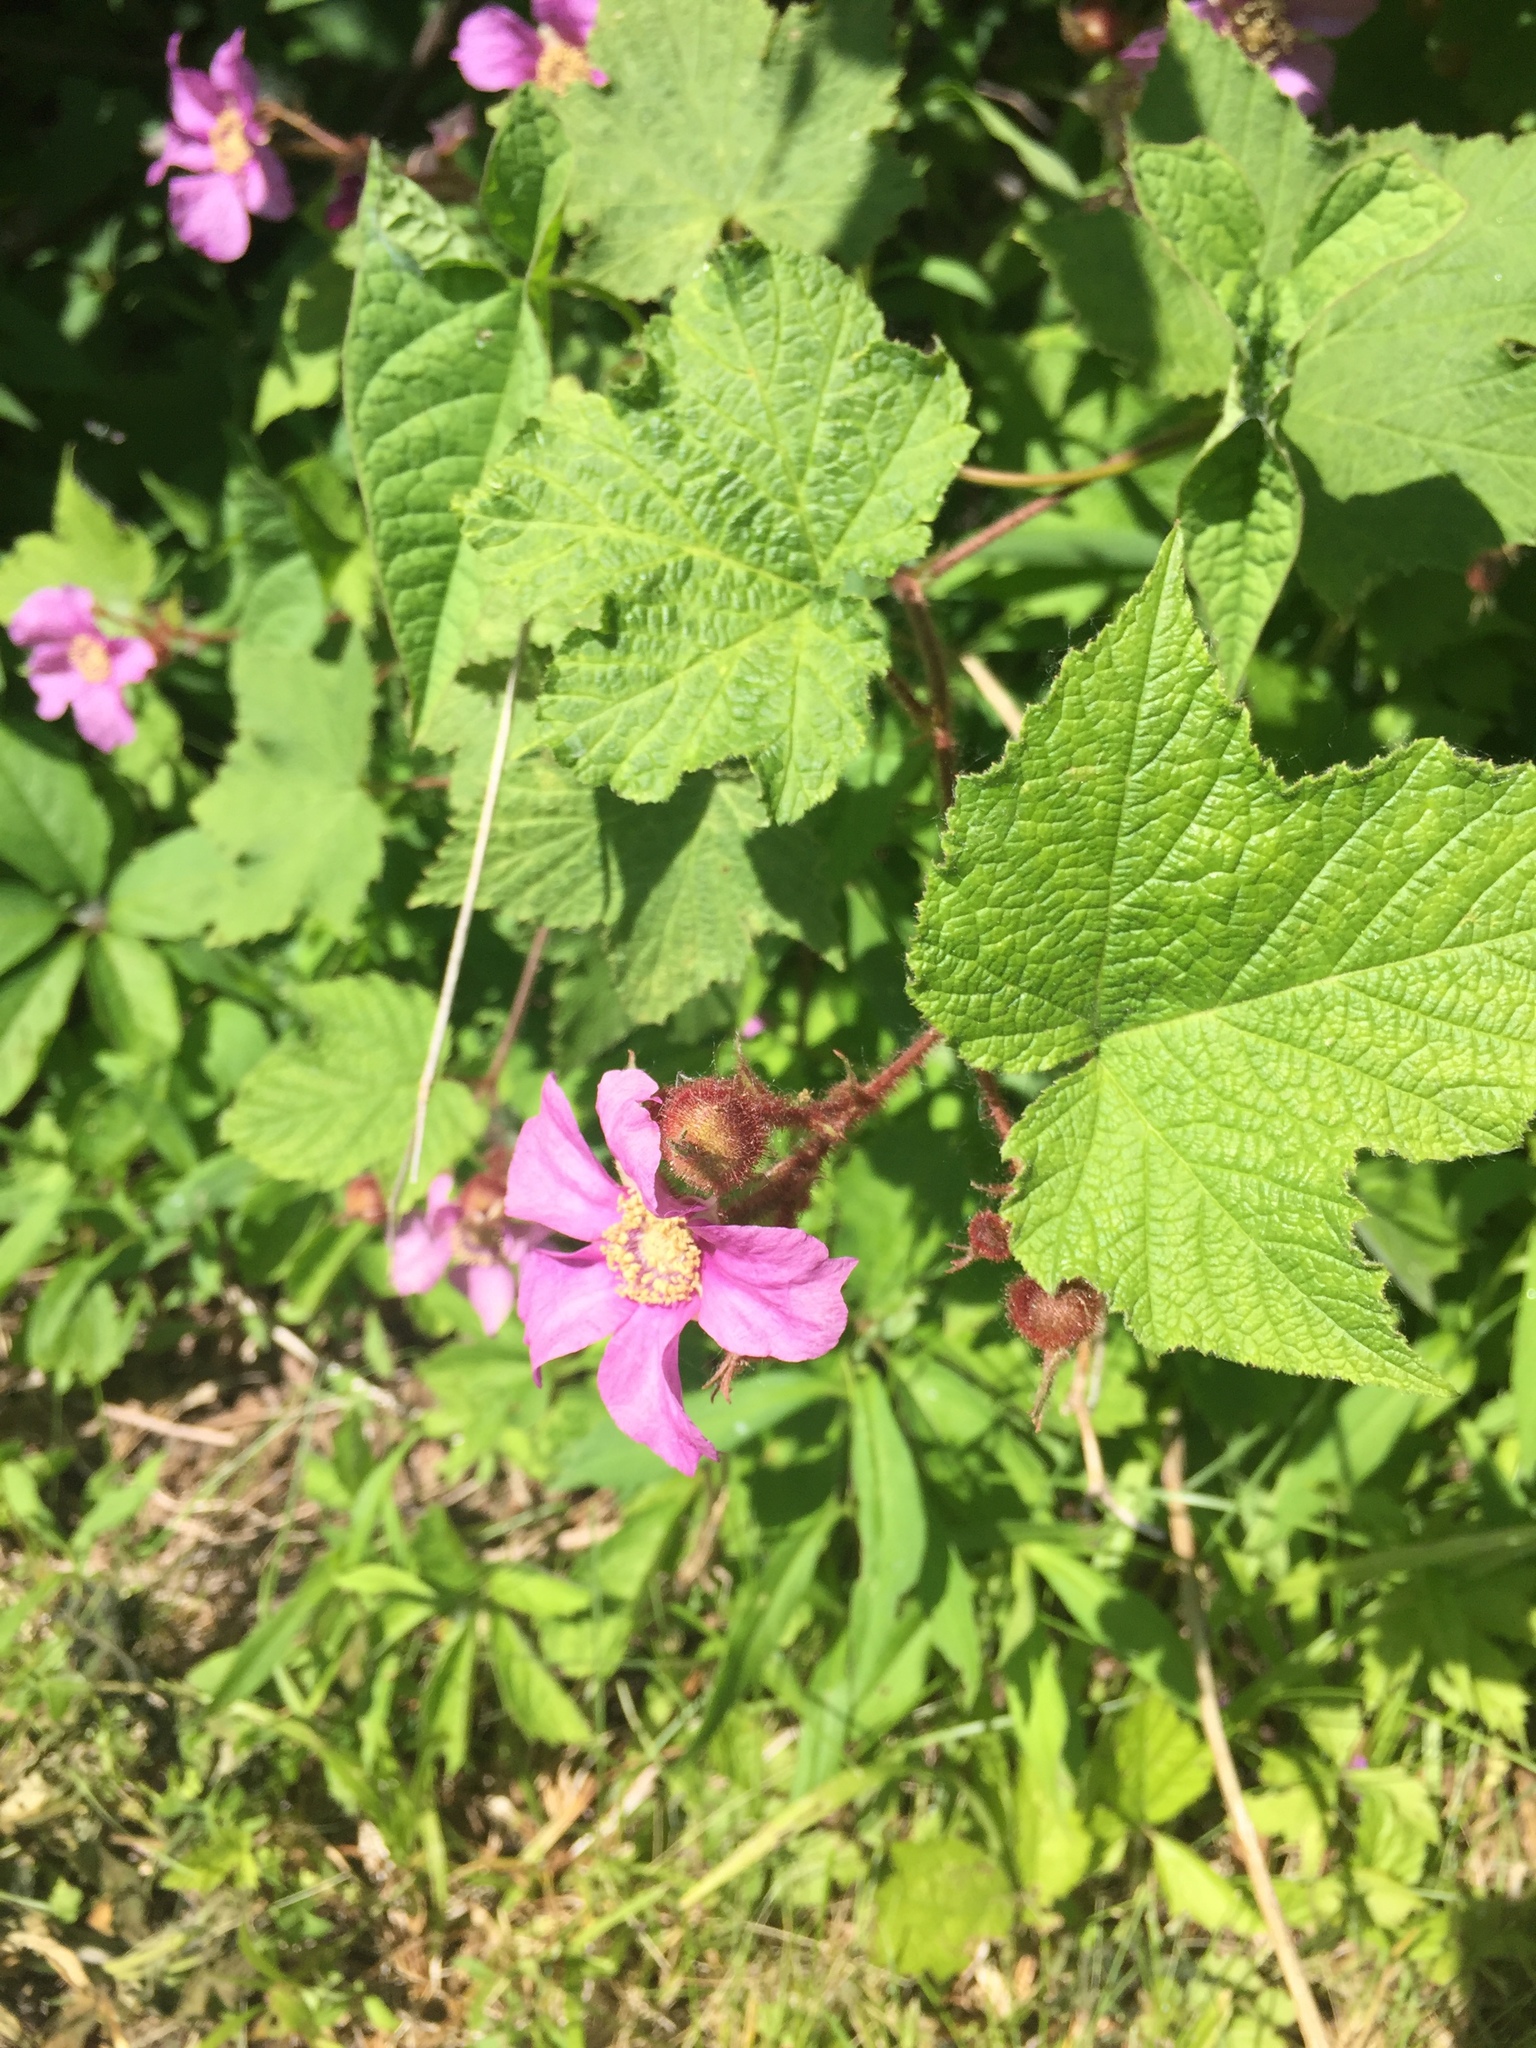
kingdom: Plantae
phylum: Tracheophyta
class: Magnoliopsida
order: Rosales
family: Rosaceae
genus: Rubus
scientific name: Rubus odoratus
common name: Purple-flowered raspberry
